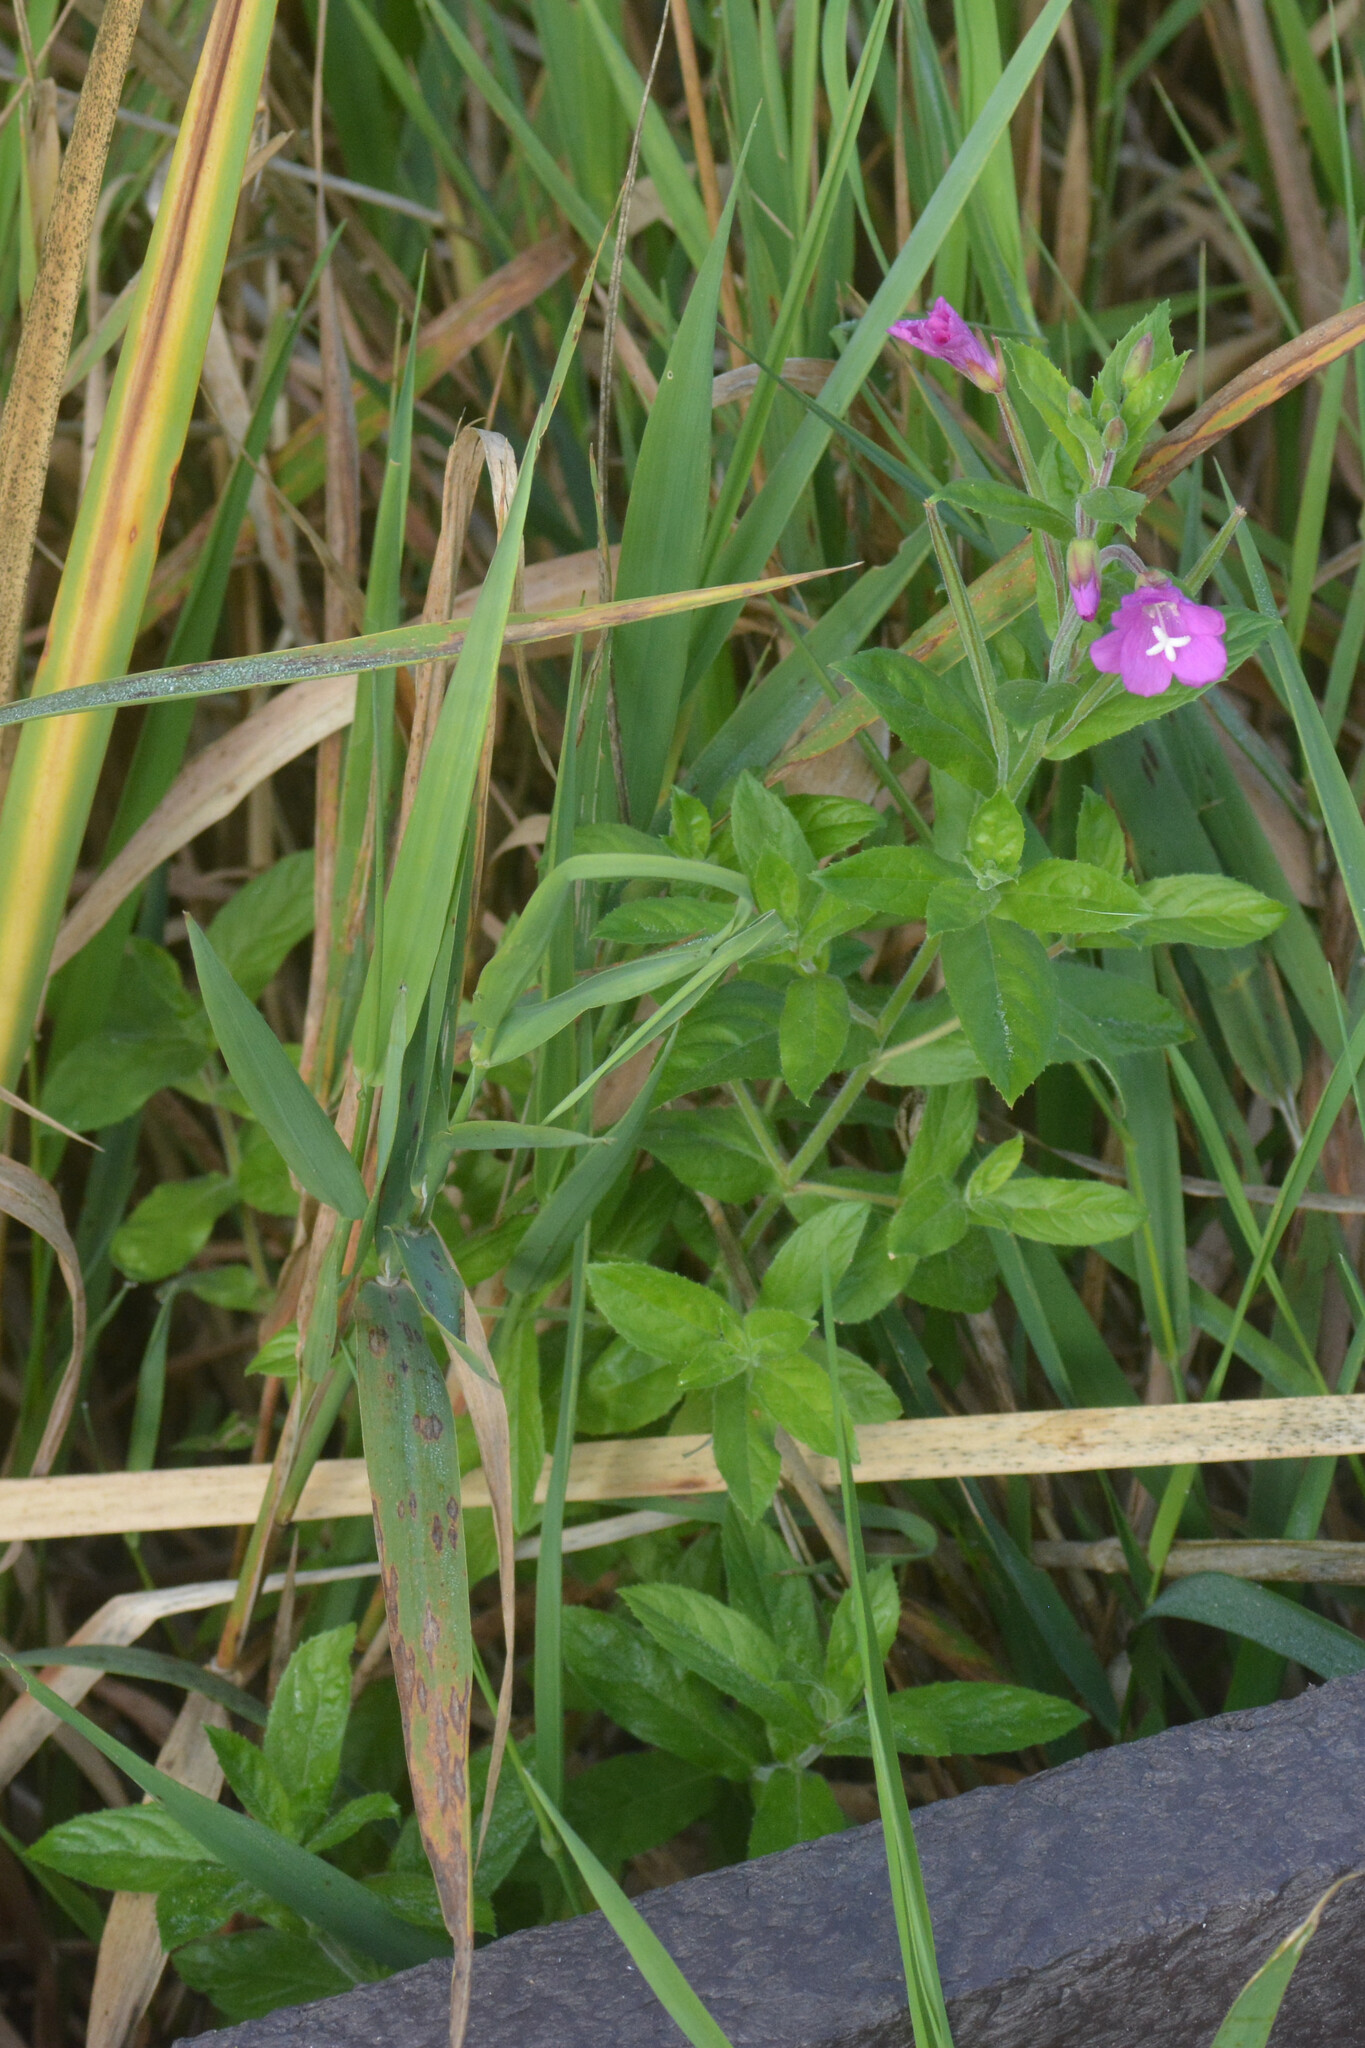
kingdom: Plantae
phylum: Tracheophyta
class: Magnoliopsida
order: Myrtales
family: Onagraceae
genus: Epilobium
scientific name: Epilobium hirsutum
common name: Great willowherb
